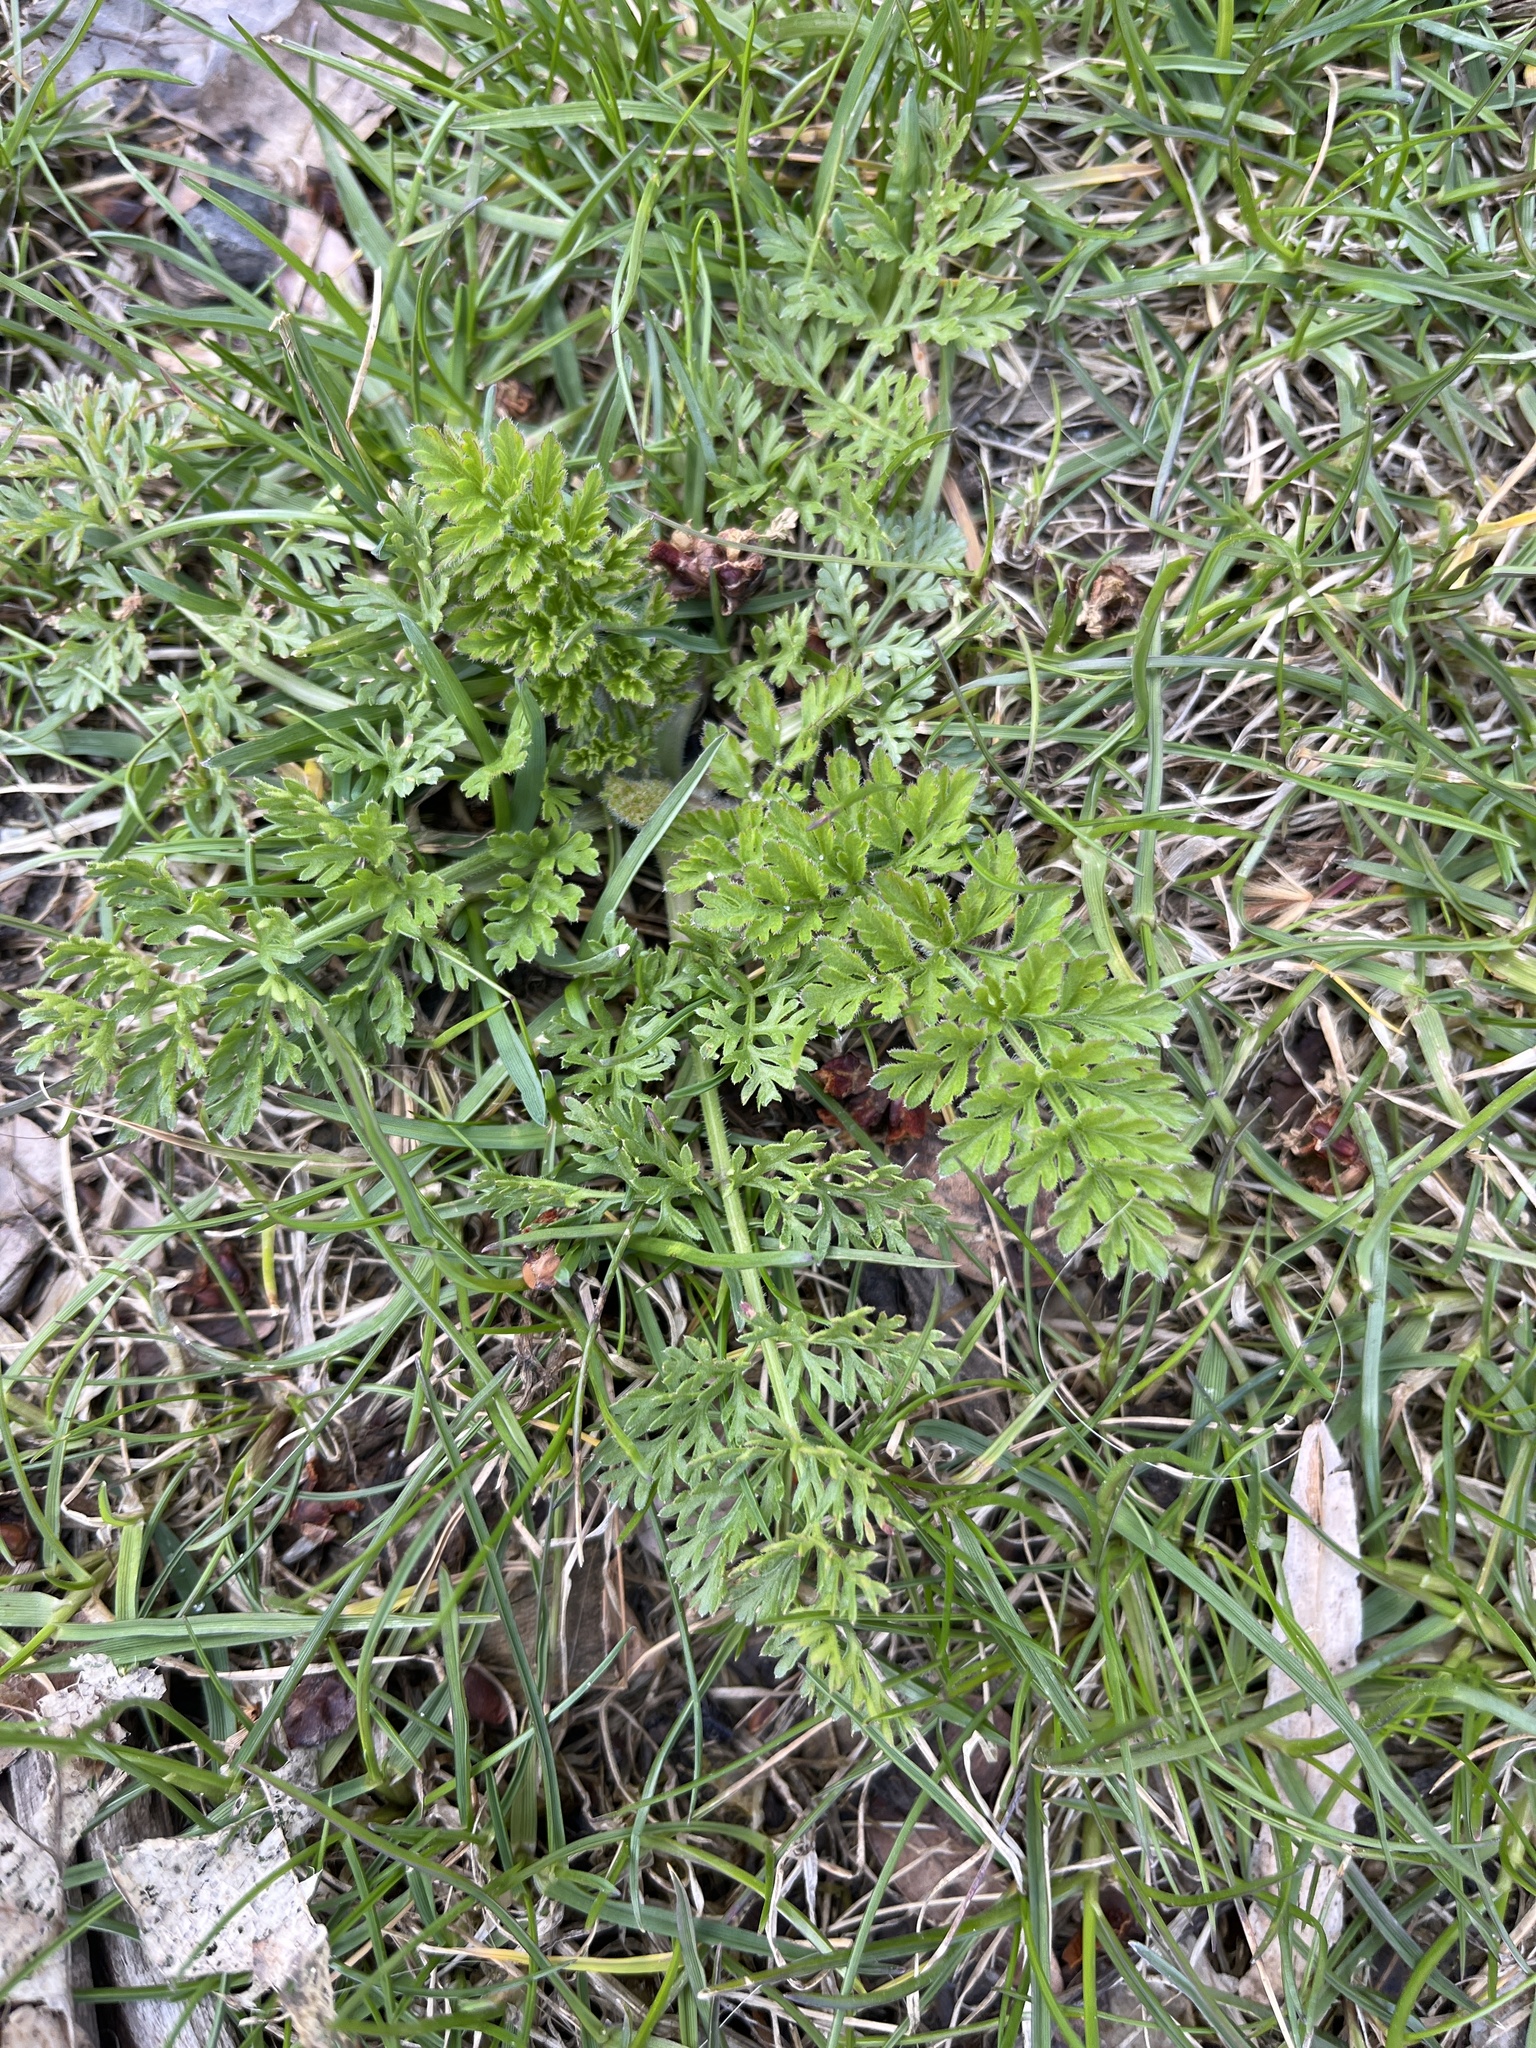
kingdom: Plantae
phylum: Tracheophyta
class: Magnoliopsida
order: Apiales
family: Apiaceae
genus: Daucus
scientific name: Daucus carota
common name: Wild carrot
